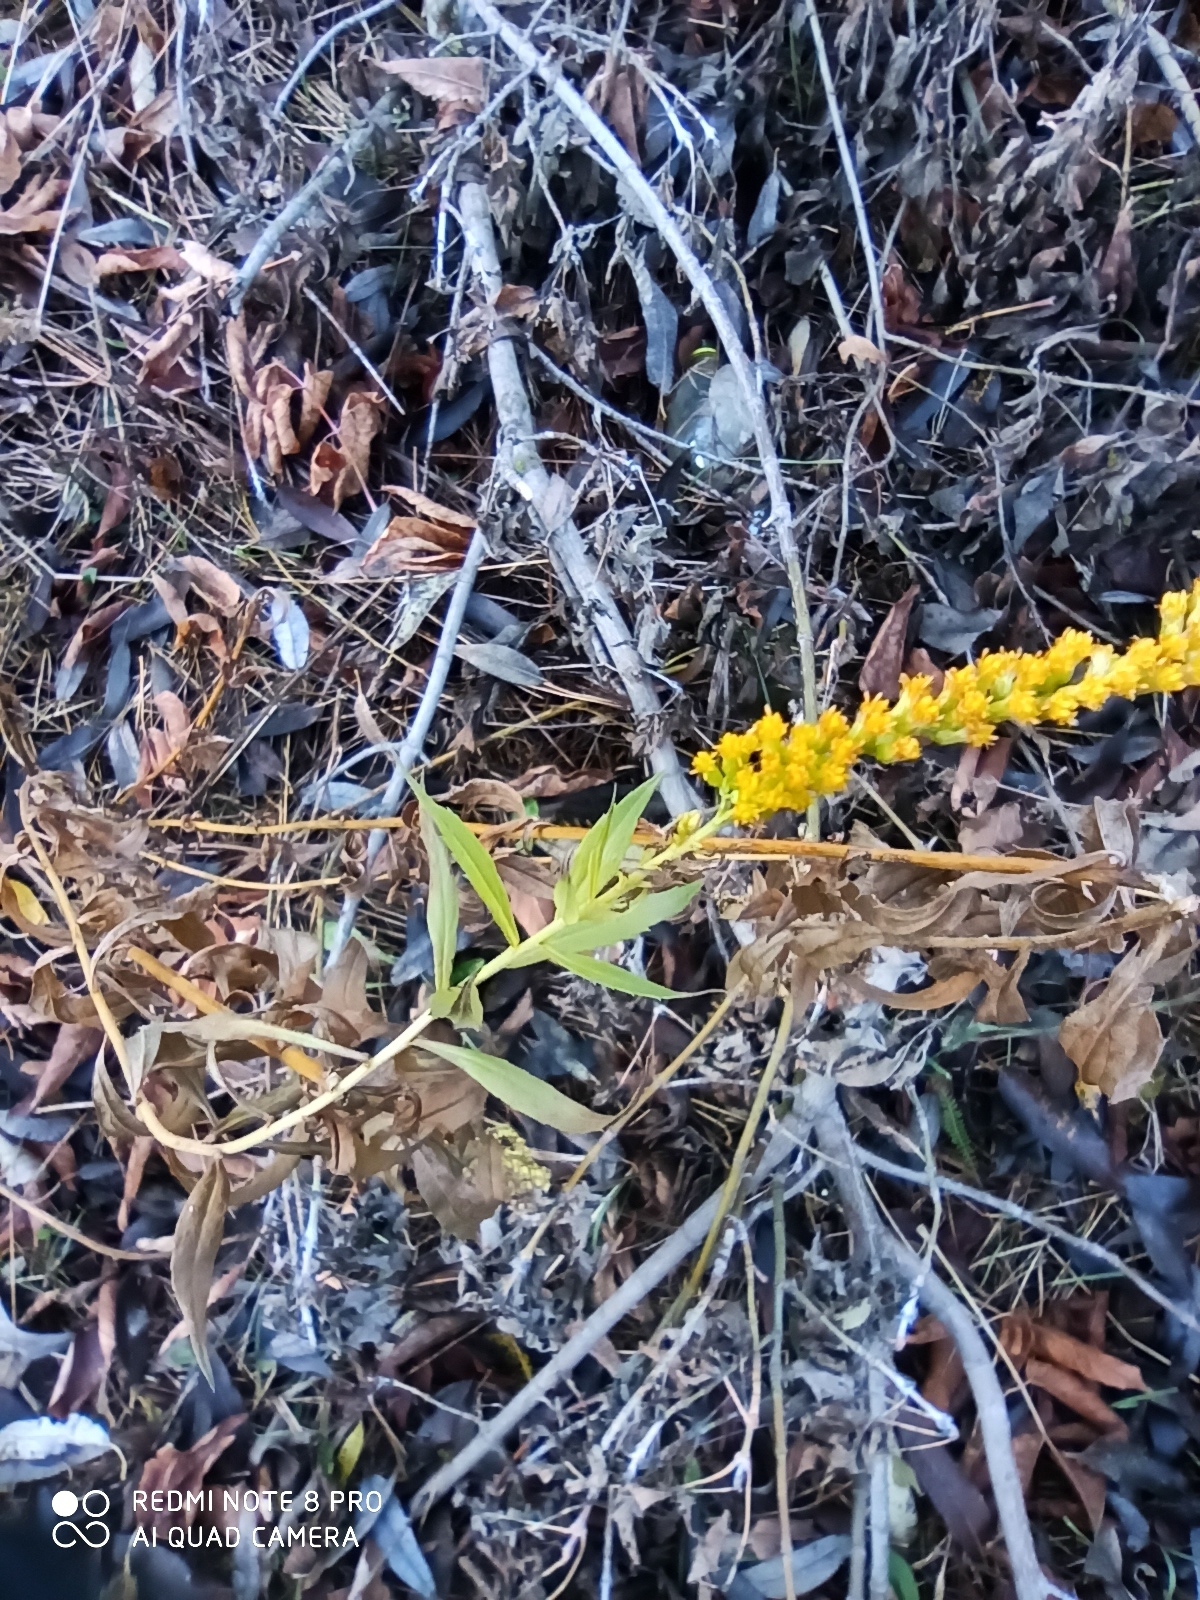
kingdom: Plantae
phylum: Tracheophyta
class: Magnoliopsida
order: Asterales
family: Asteraceae
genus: Solidago
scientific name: Solidago canadensis
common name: Canada goldenrod
